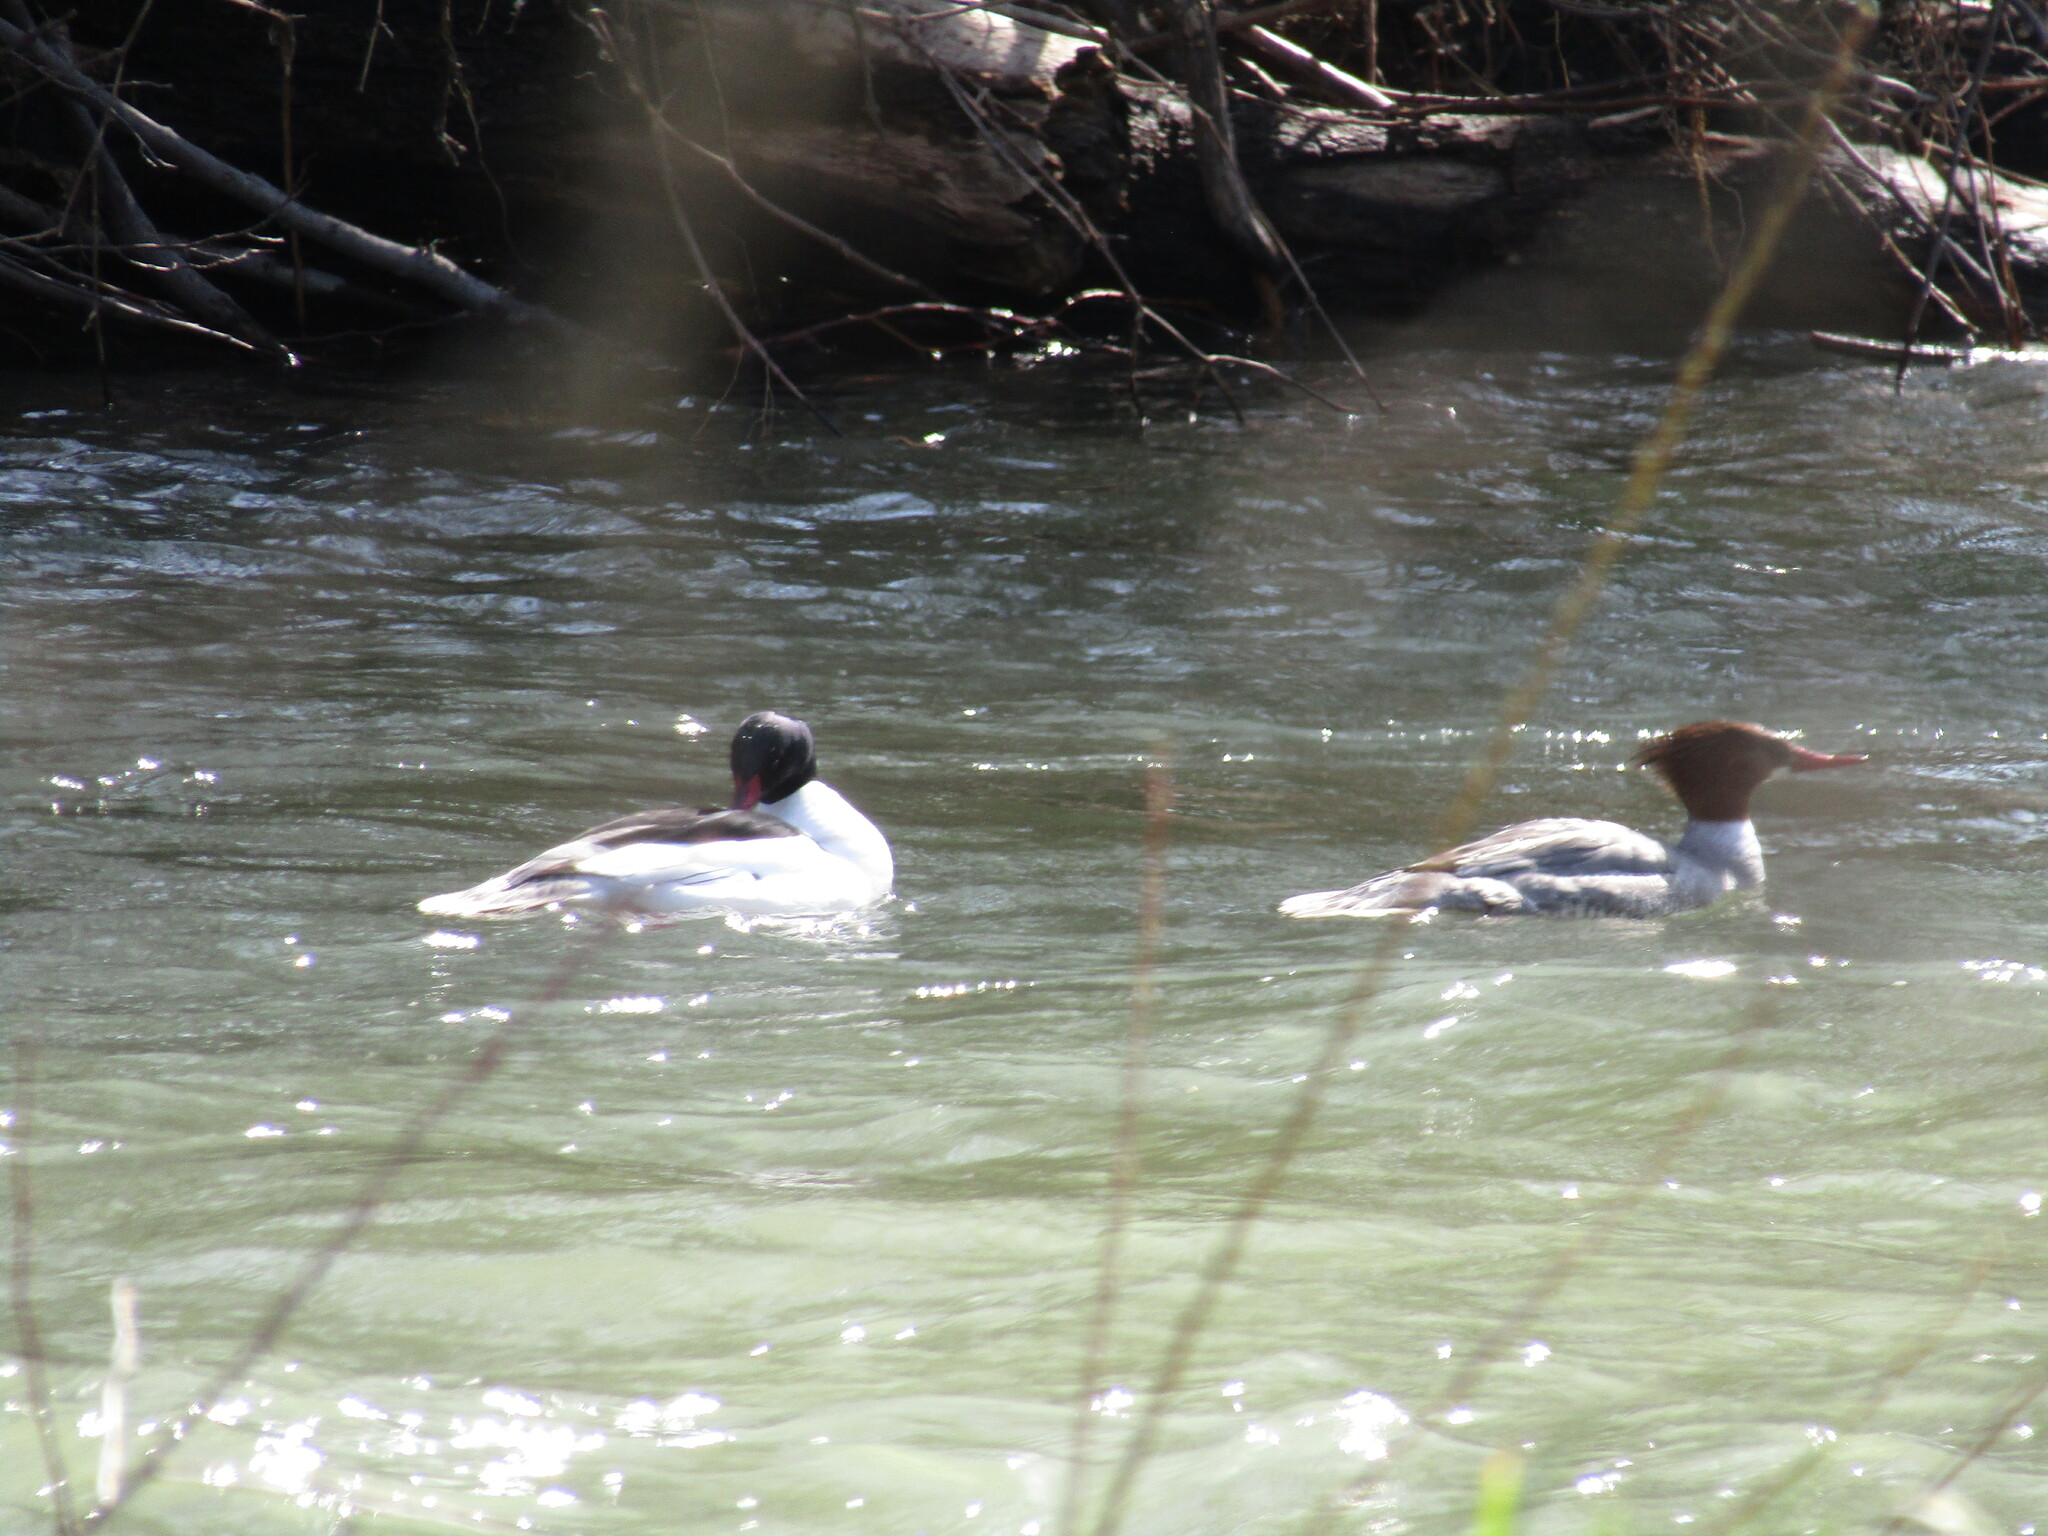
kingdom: Animalia
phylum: Chordata
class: Aves
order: Anseriformes
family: Anatidae
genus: Mergus
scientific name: Mergus merganser
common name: Common merganser
